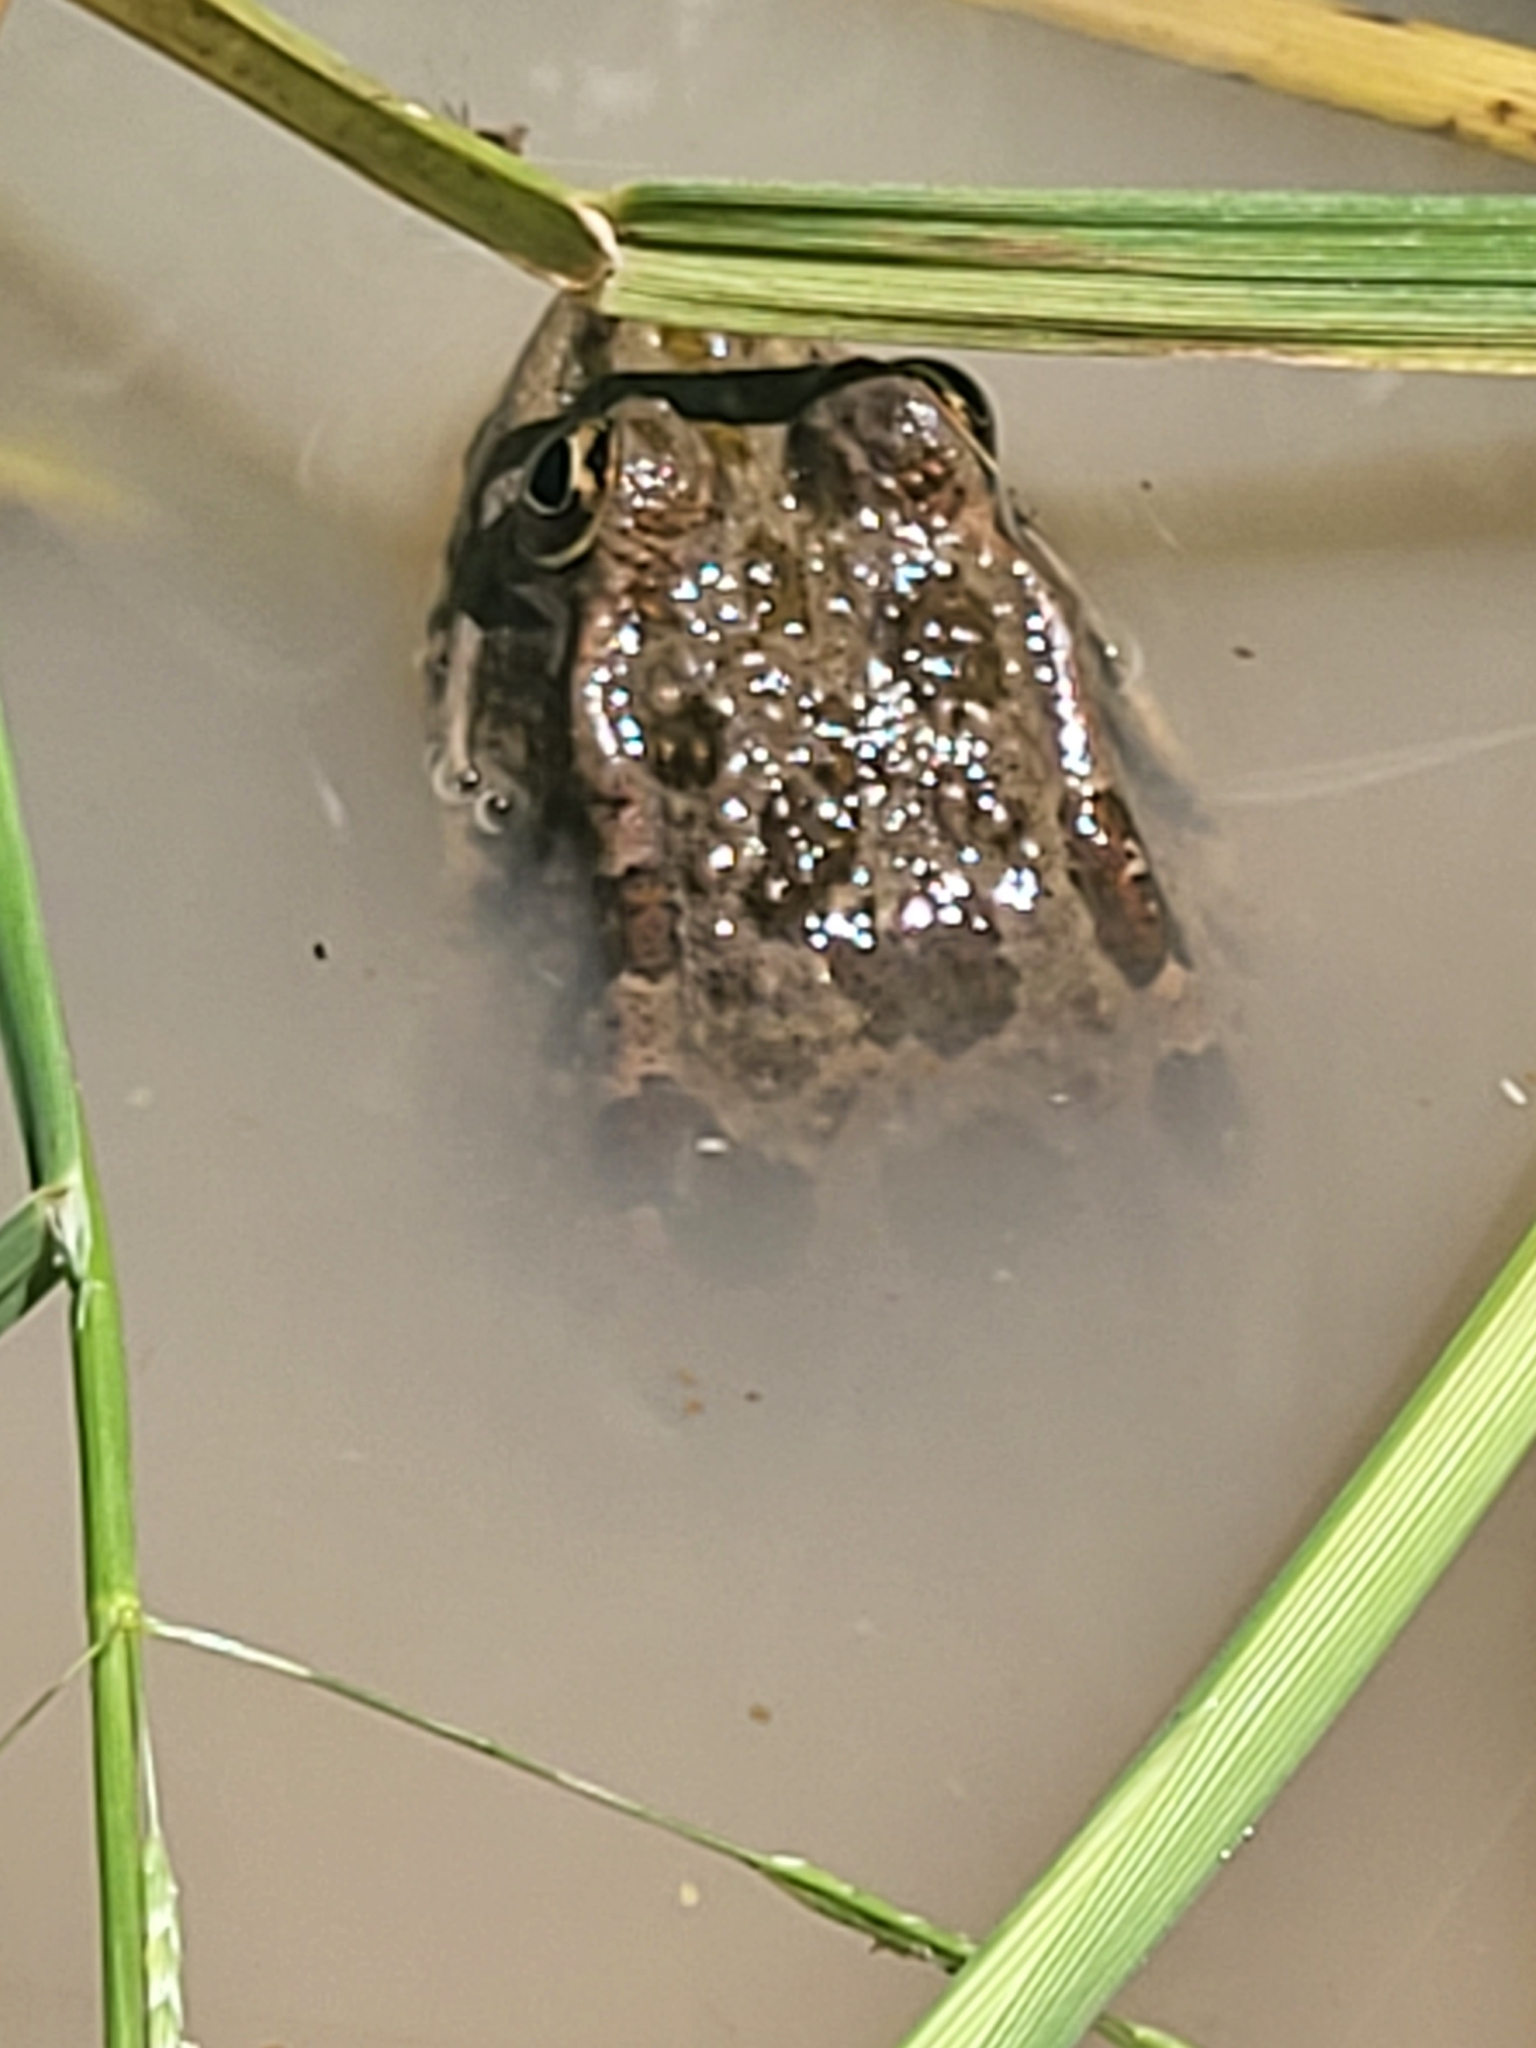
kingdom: Animalia
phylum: Chordata
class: Amphibia
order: Anura
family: Ranidae
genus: Pelophylax
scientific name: Pelophylax ridibundus
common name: Marsh frog
